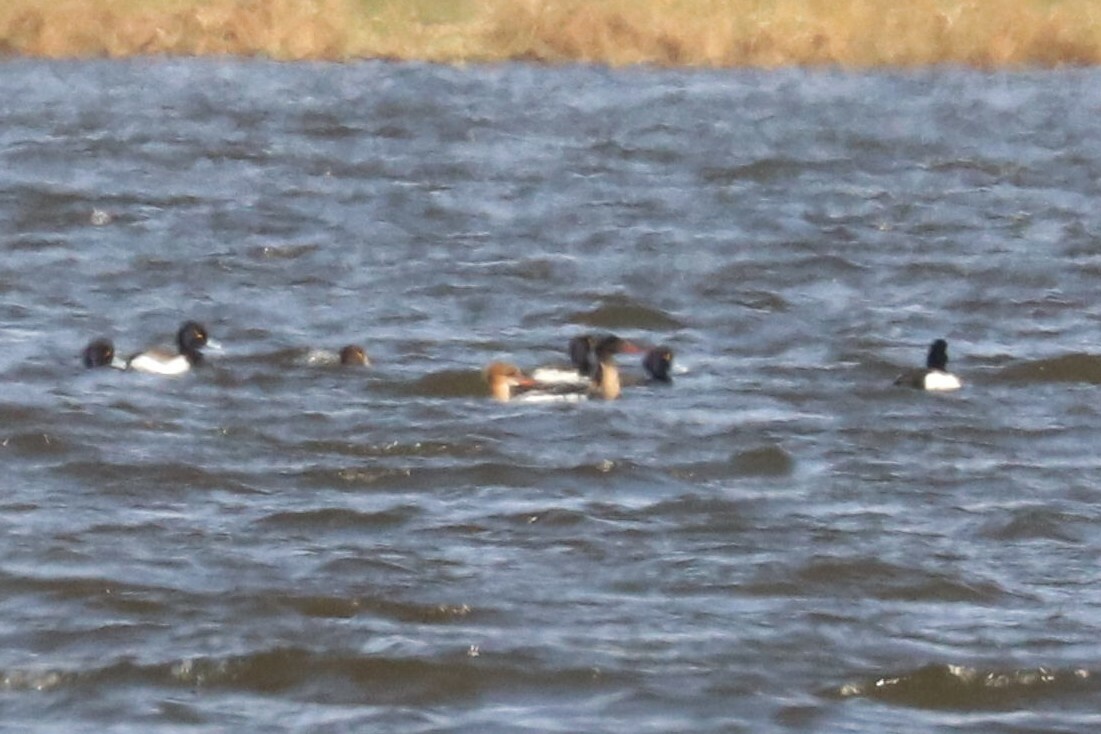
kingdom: Animalia
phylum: Chordata
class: Aves
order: Anseriformes
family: Anatidae
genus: Mergus
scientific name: Mergus serrator
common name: Red-breasted merganser
